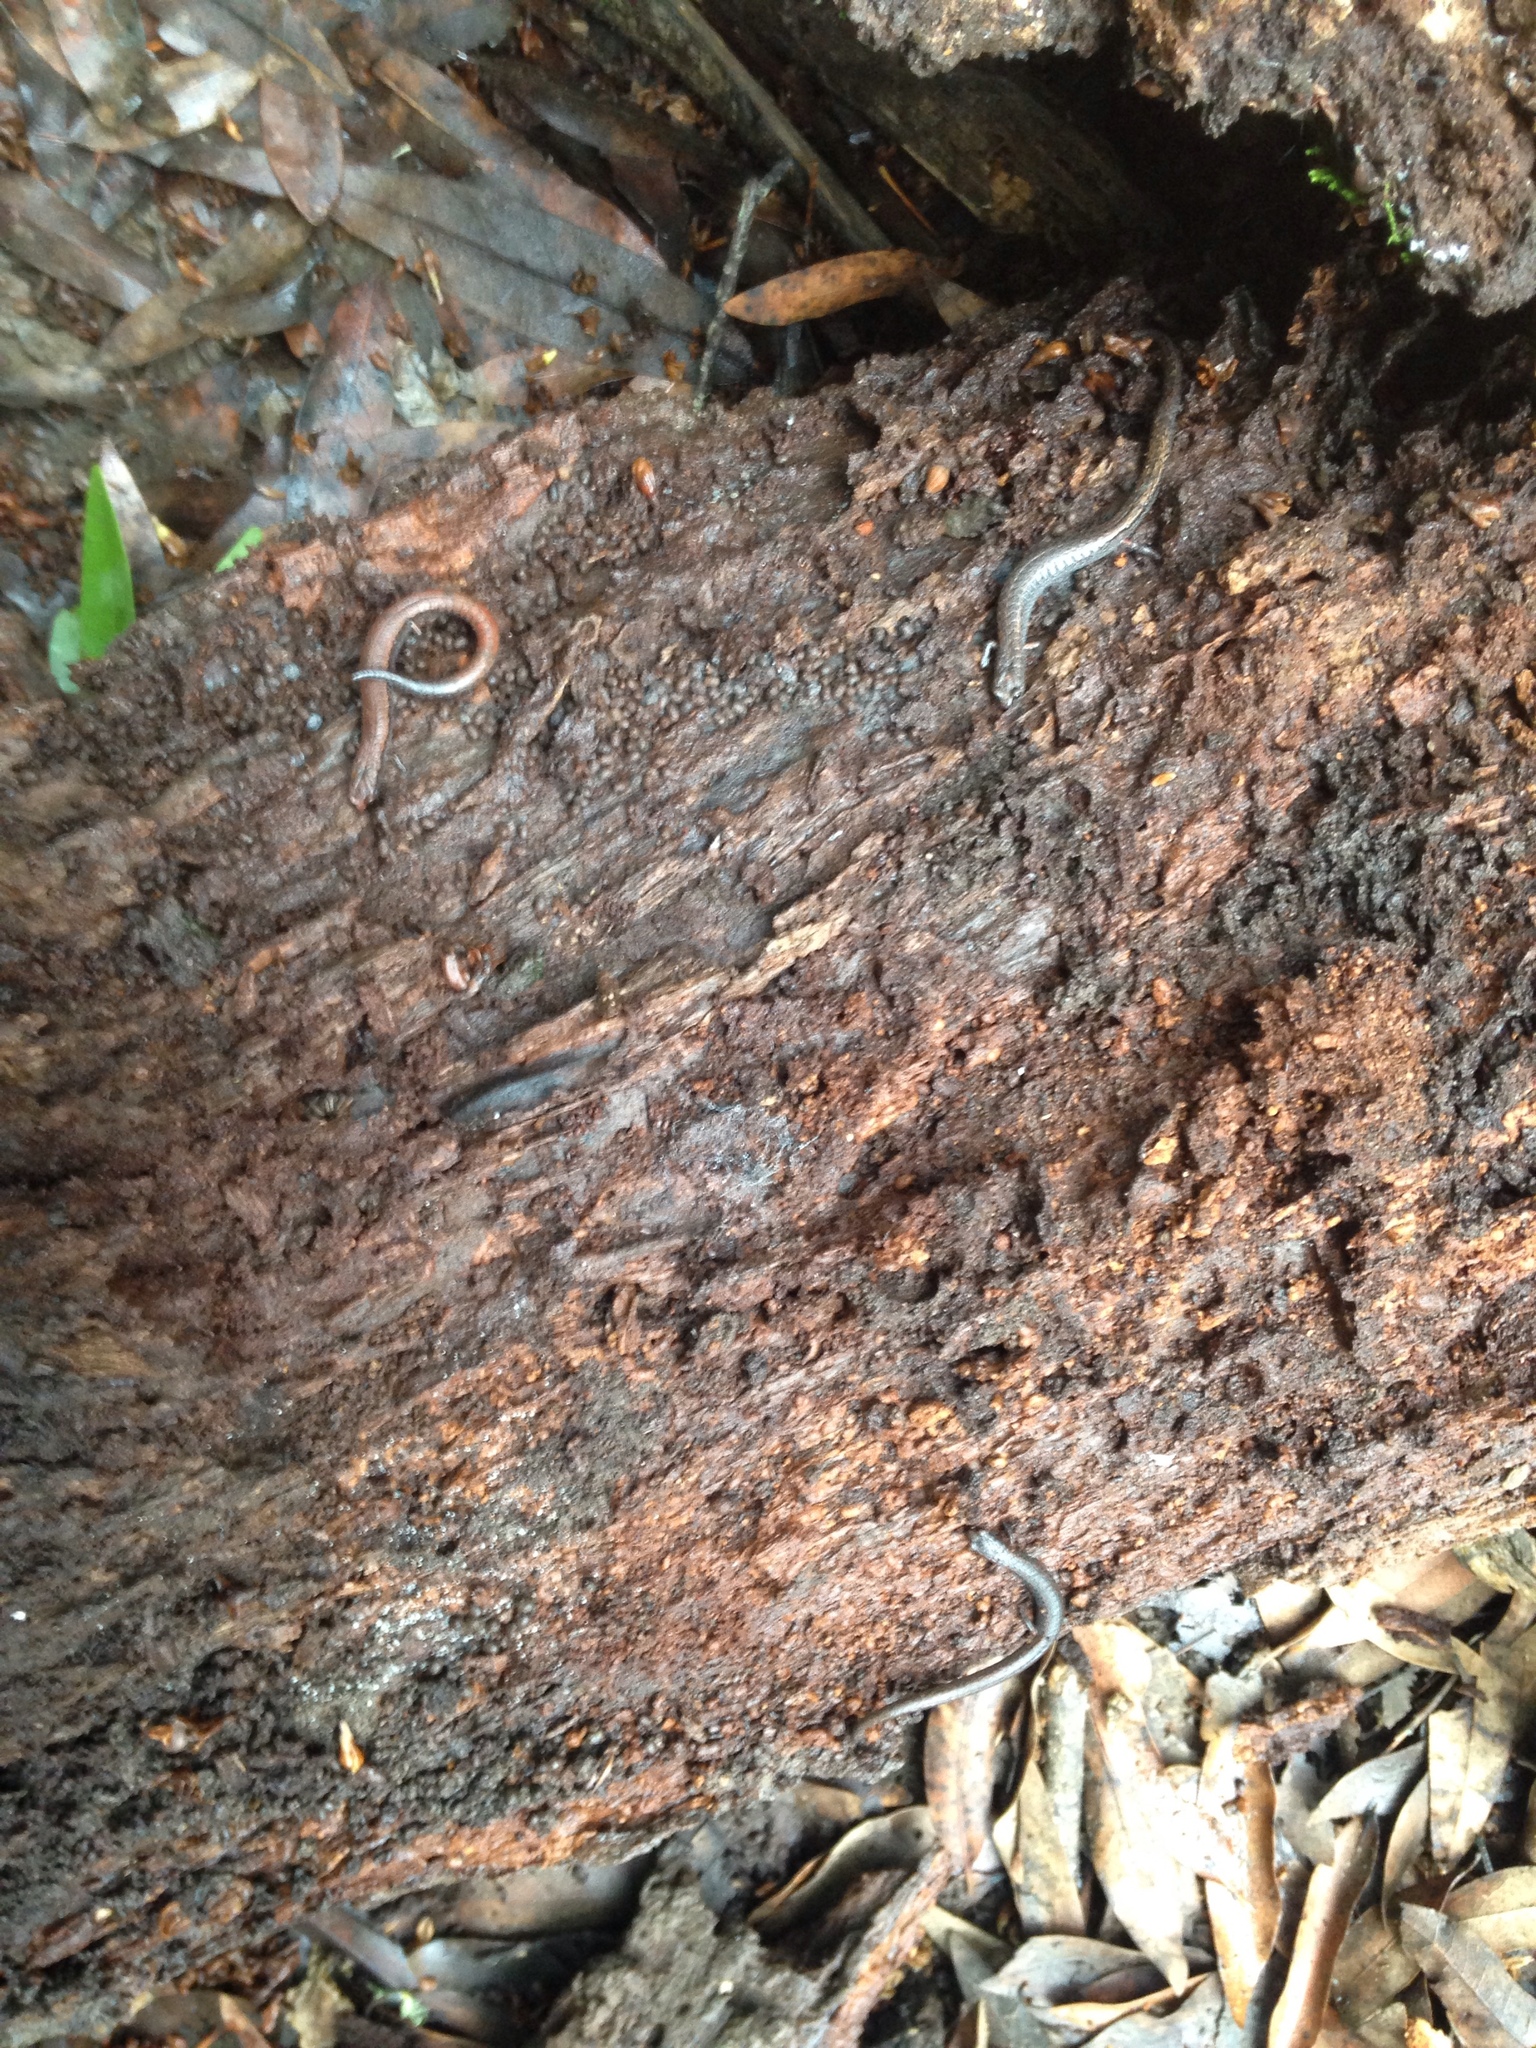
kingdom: Animalia
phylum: Chordata
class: Amphibia
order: Caudata
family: Plethodontidae
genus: Batrachoseps
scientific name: Batrachoseps attenuatus
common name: California slender salamander
